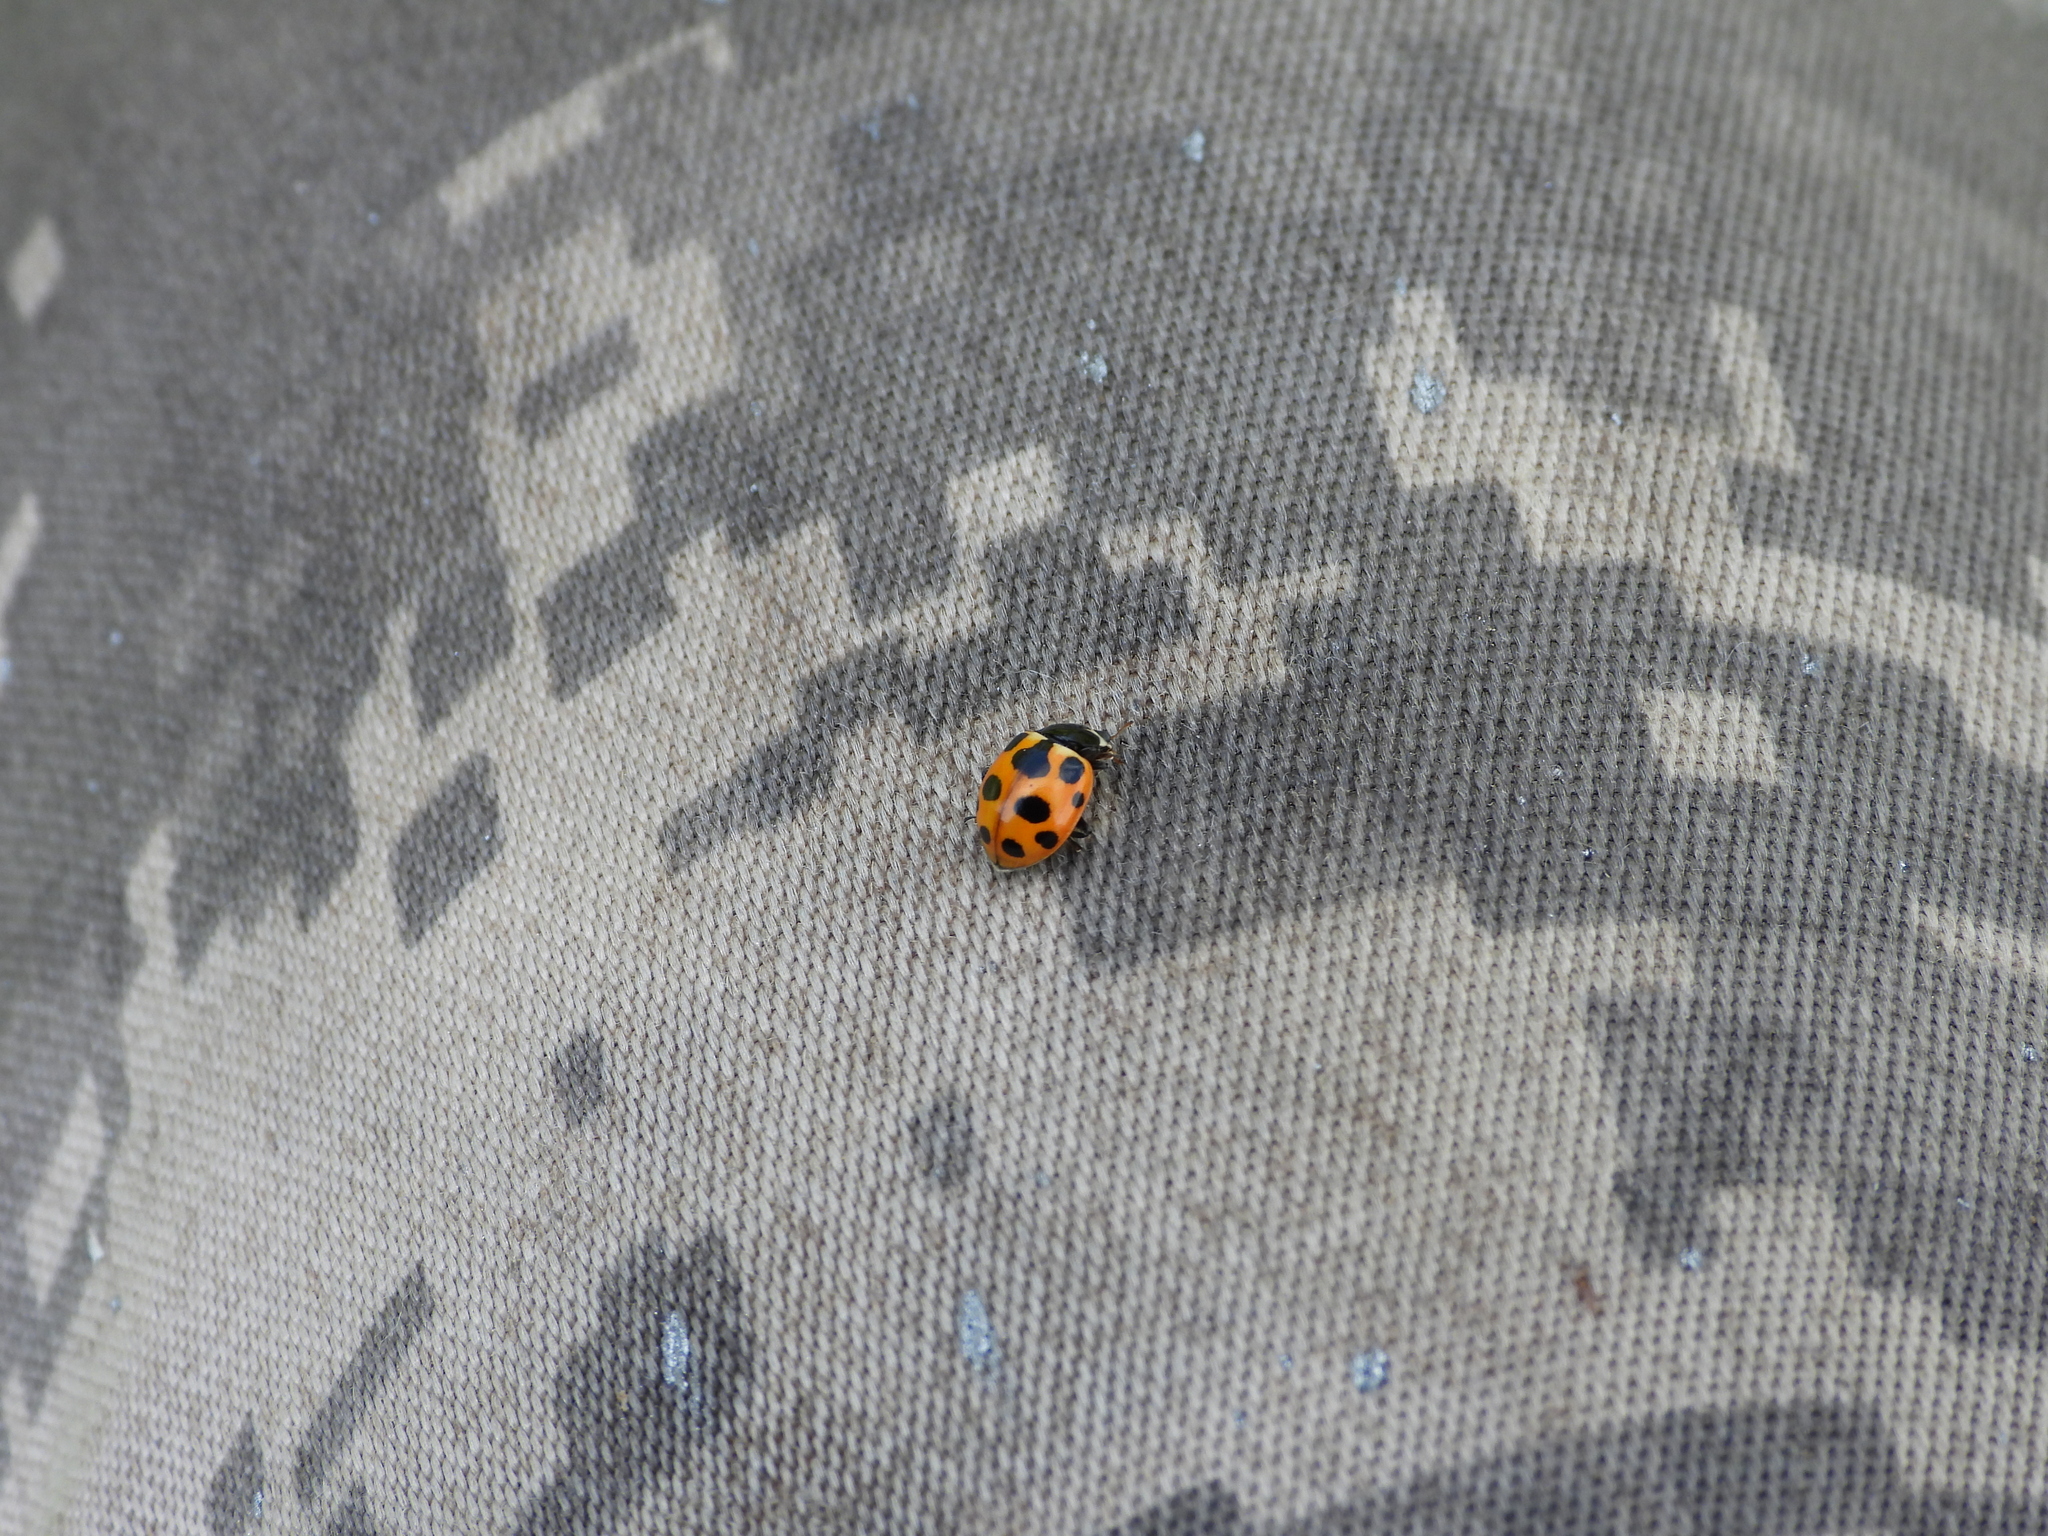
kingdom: Animalia
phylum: Arthropoda
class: Insecta
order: Coleoptera
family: Coccinellidae
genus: Ceratomegilla
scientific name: Ceratomegilla notata
